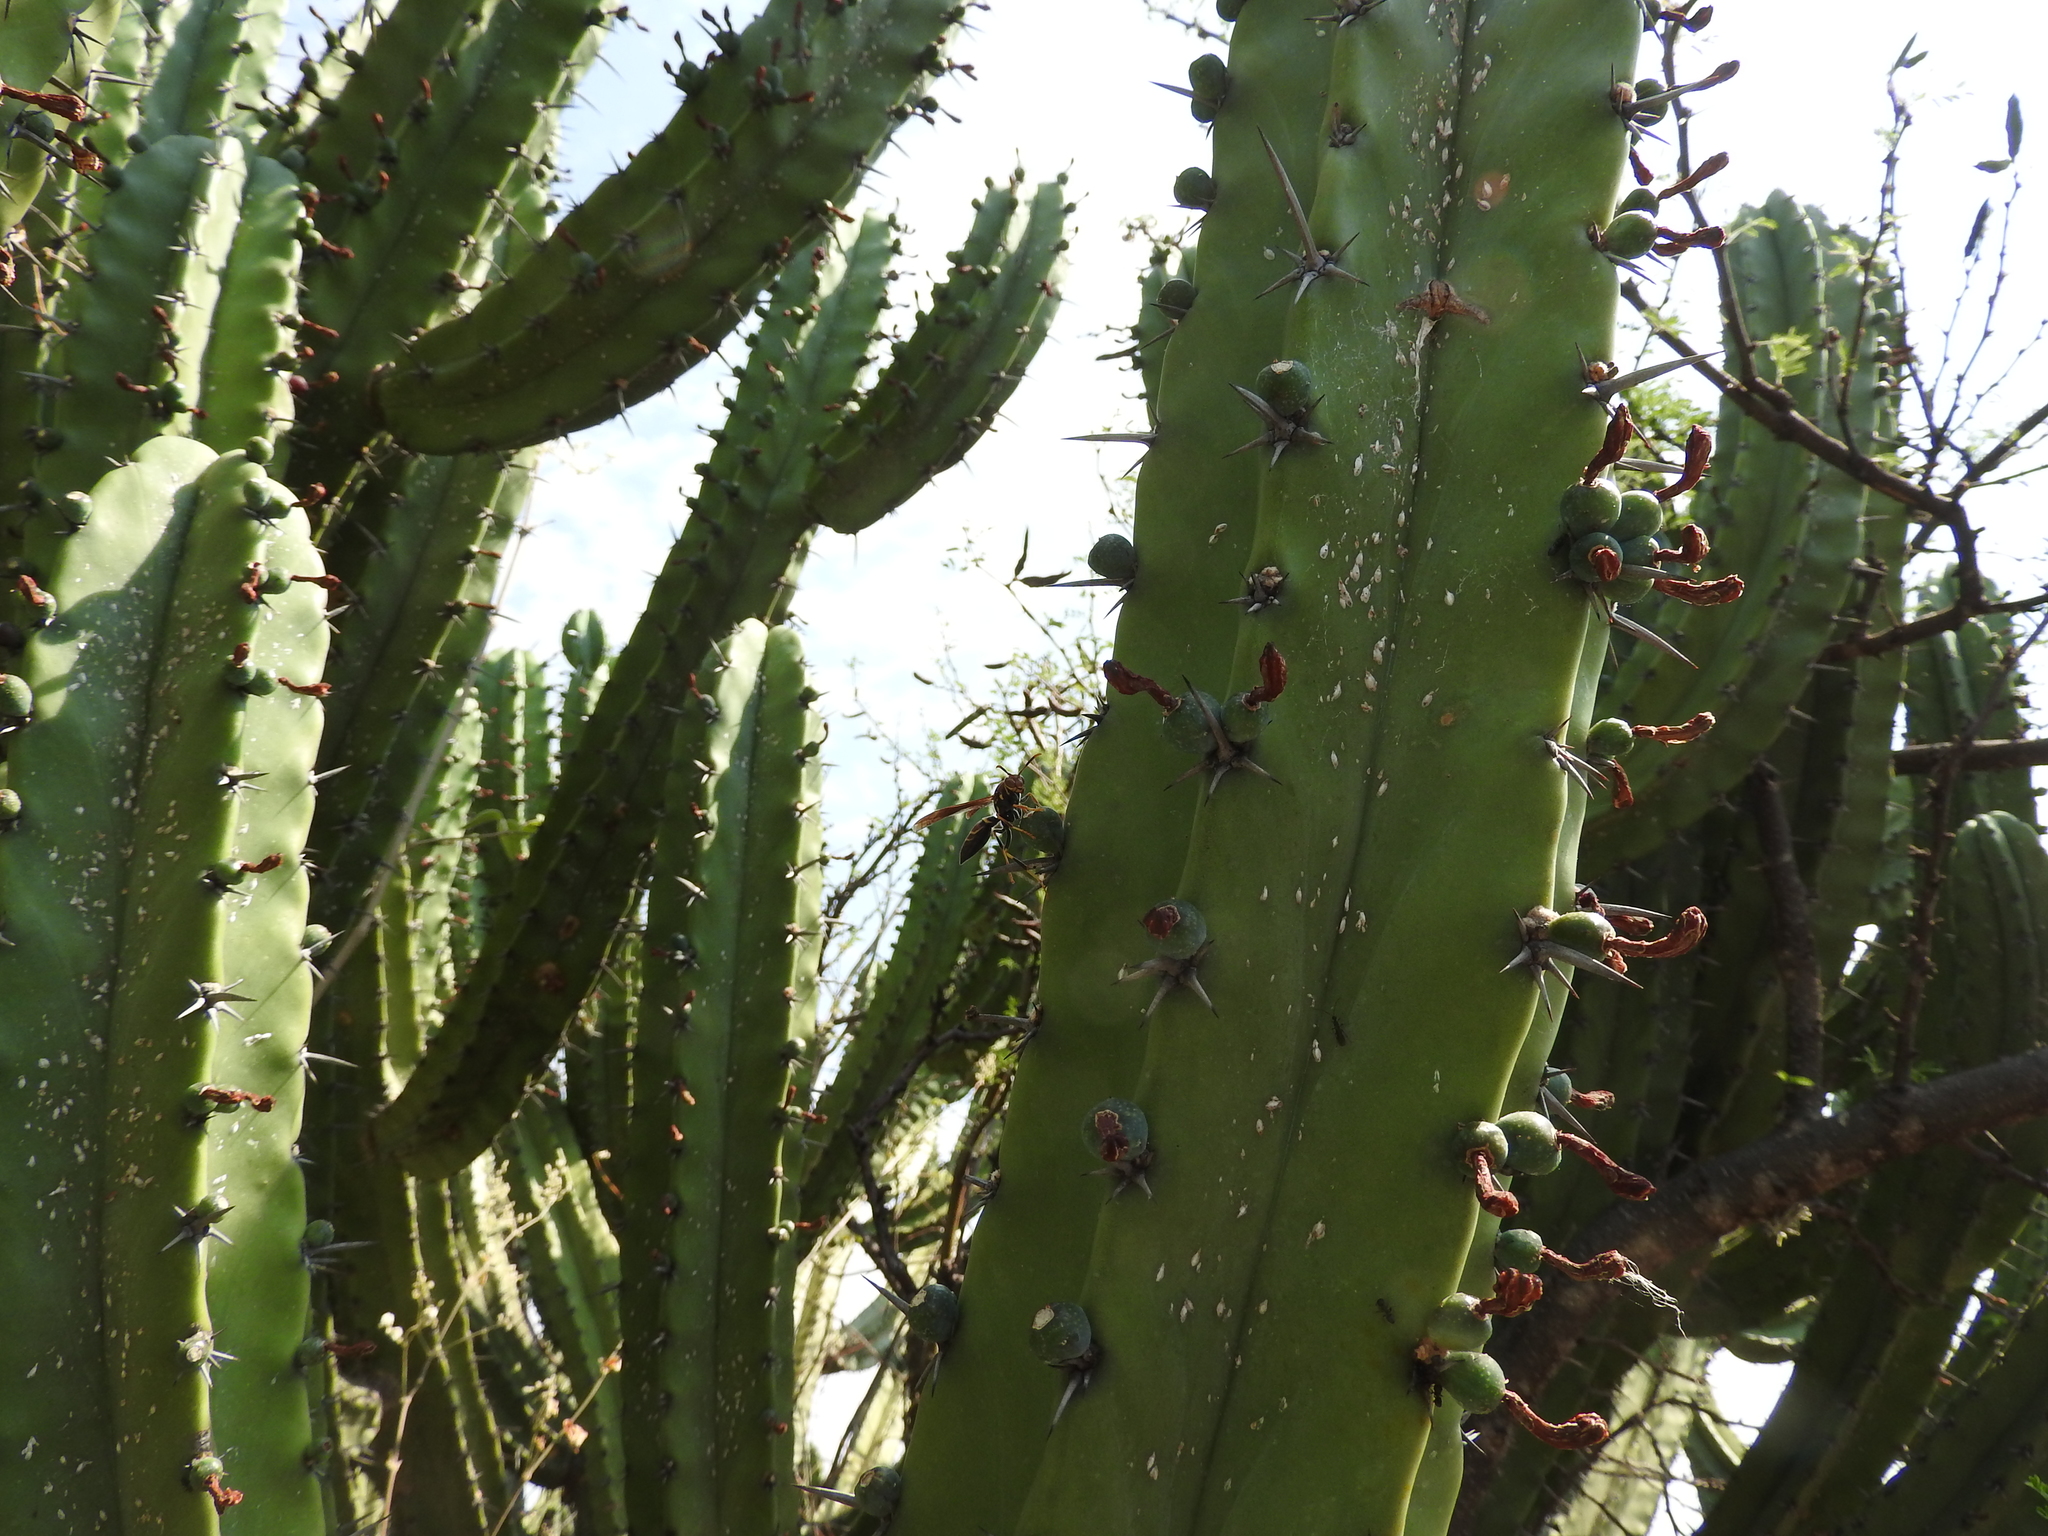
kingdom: Plantae
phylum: Tracheophyta
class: Magnoliopsida
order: Caryophyllales
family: Cactaceae
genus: Myrtillocactus
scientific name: Myrtillocactus geometrizans
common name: Bilberry cactus
